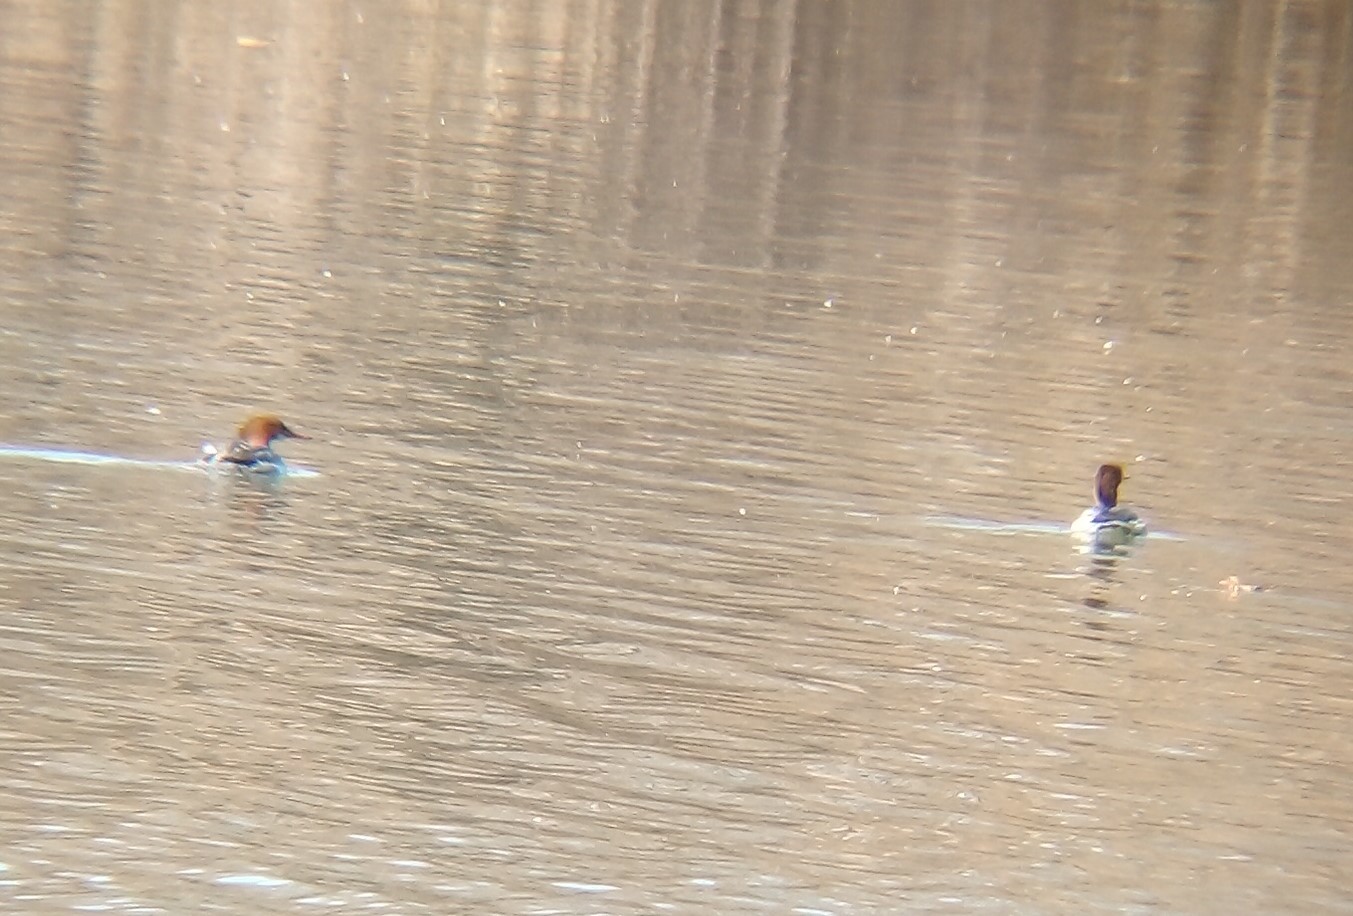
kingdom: Animalia
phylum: Chordata
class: Aves
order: Anseriformes
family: Anatidae
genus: Mergus
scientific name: Mergus merganser
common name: Common merganser
